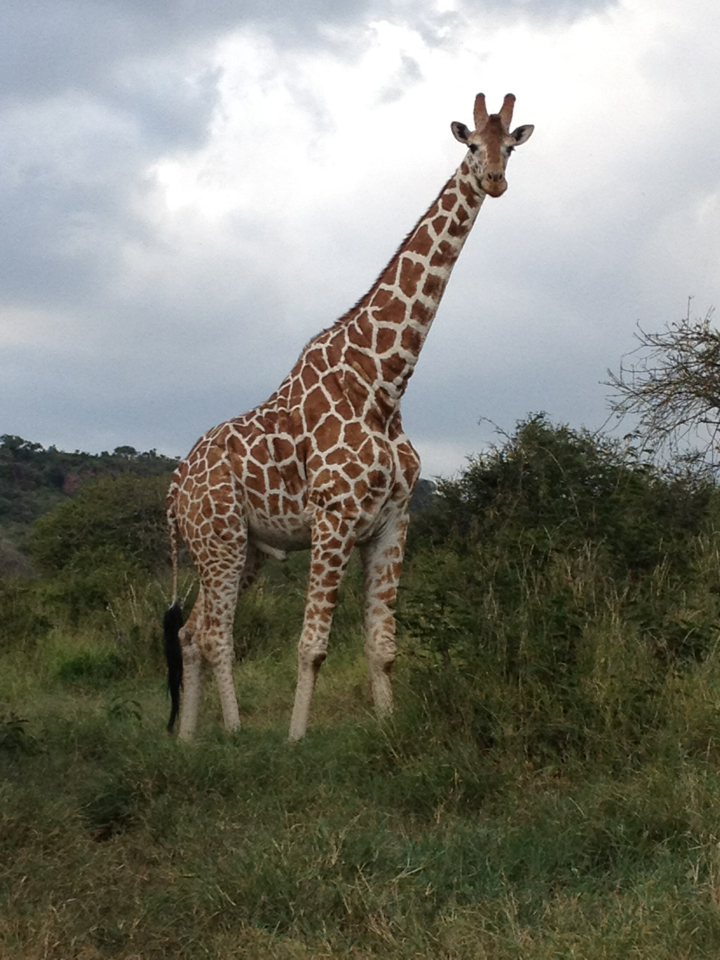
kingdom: Animalia
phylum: Chordata
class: Mammalia
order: Artiodactyla
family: Giraffidae
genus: Giraffa
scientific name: Giraffa reticulata
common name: Reticulated giraffe
